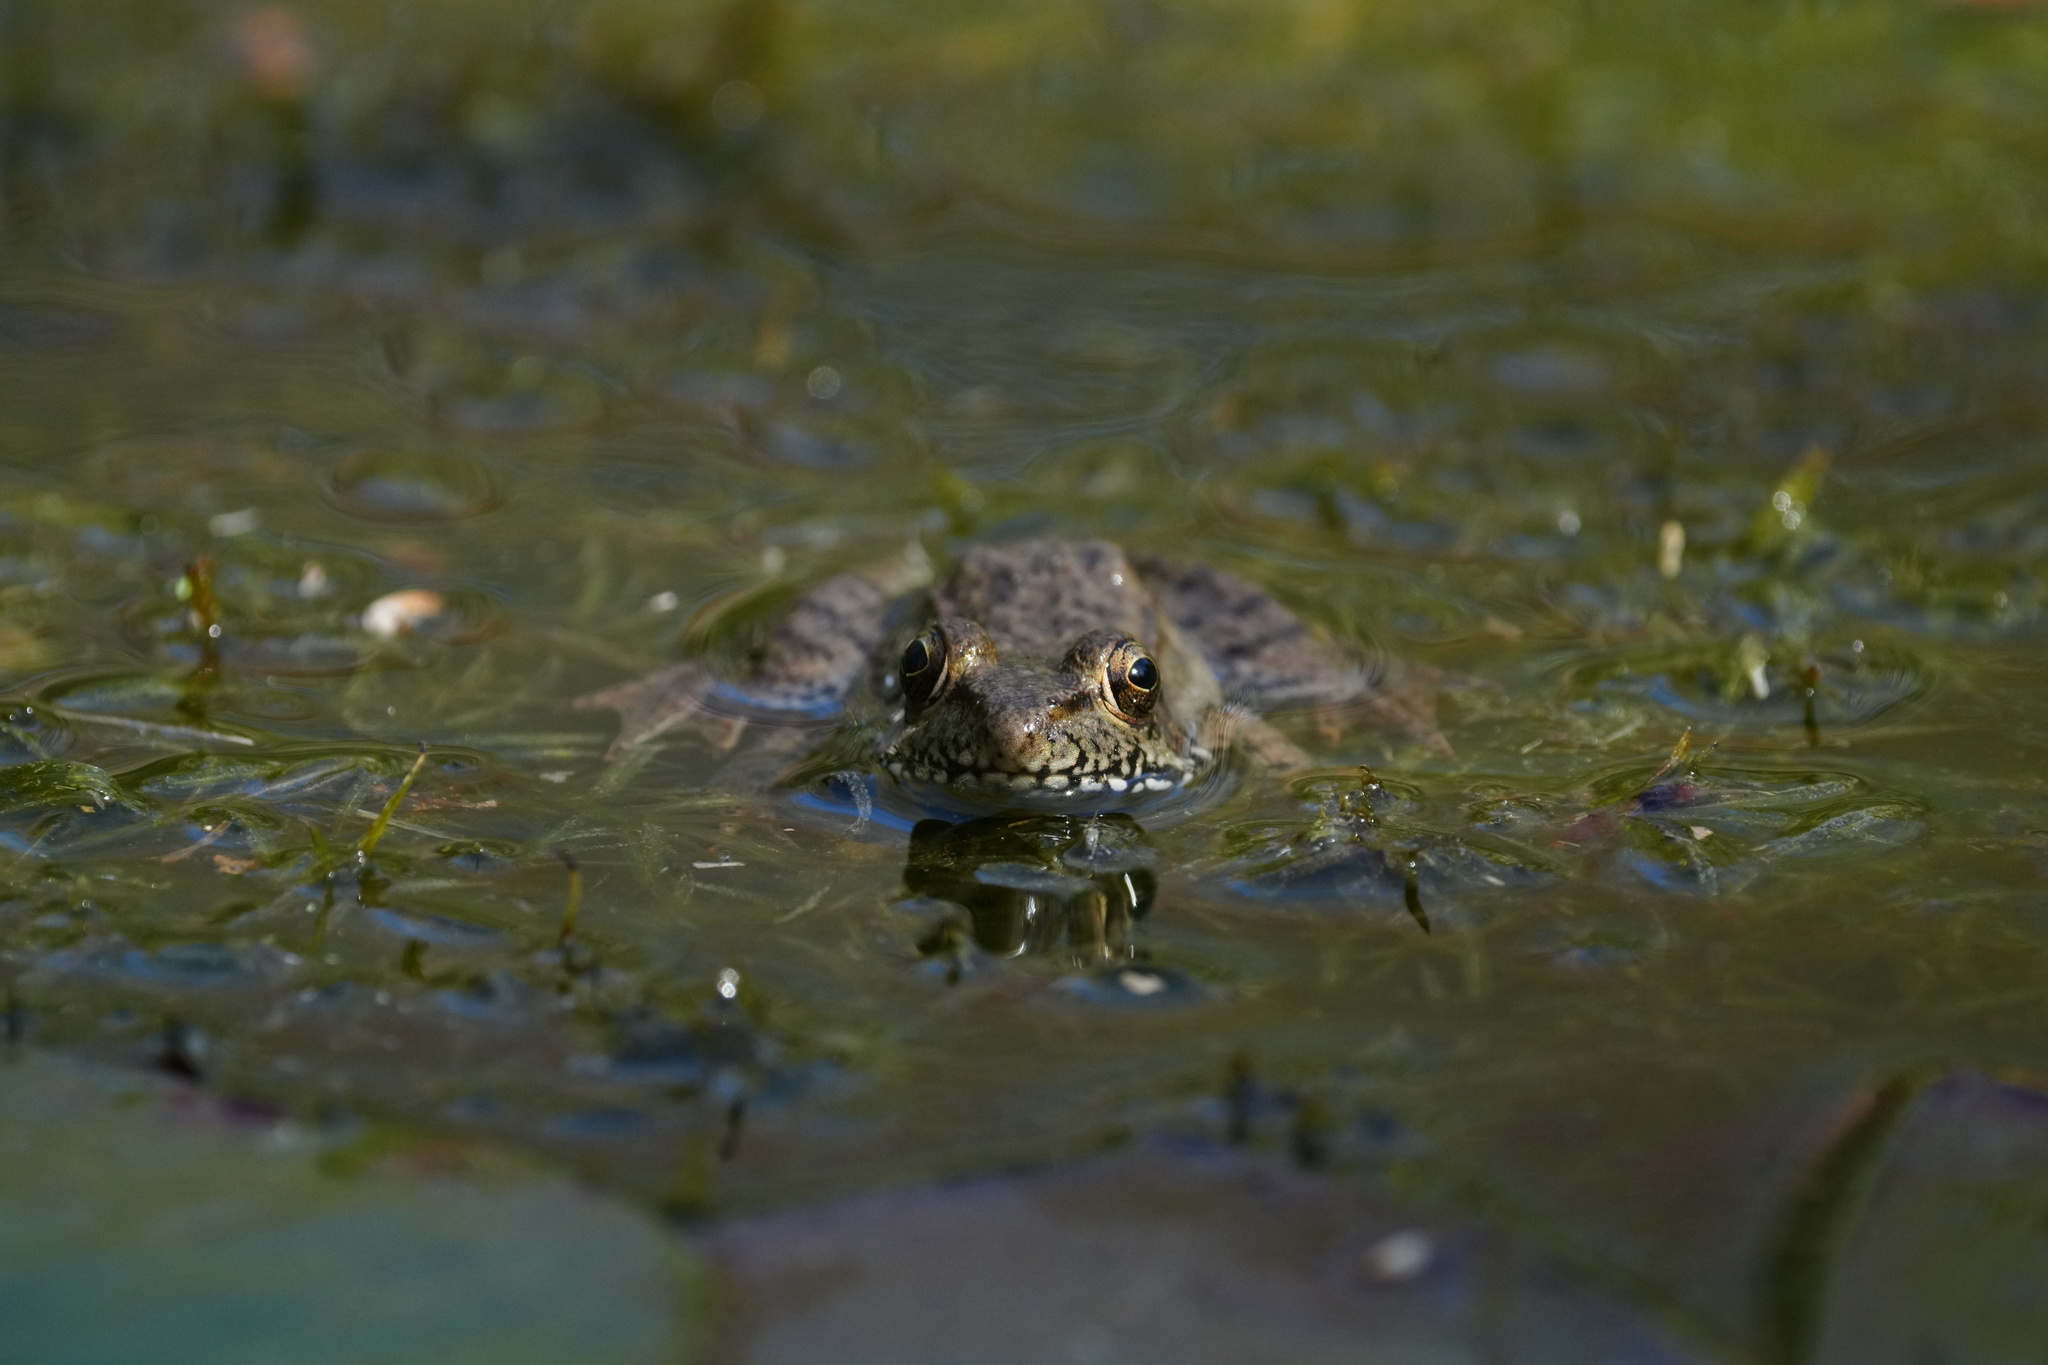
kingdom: Animalia
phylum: Chordata
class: Amphibia
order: Anura
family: Ranidae
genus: Lithobates
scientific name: Lithobates clamitans
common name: Green frog
